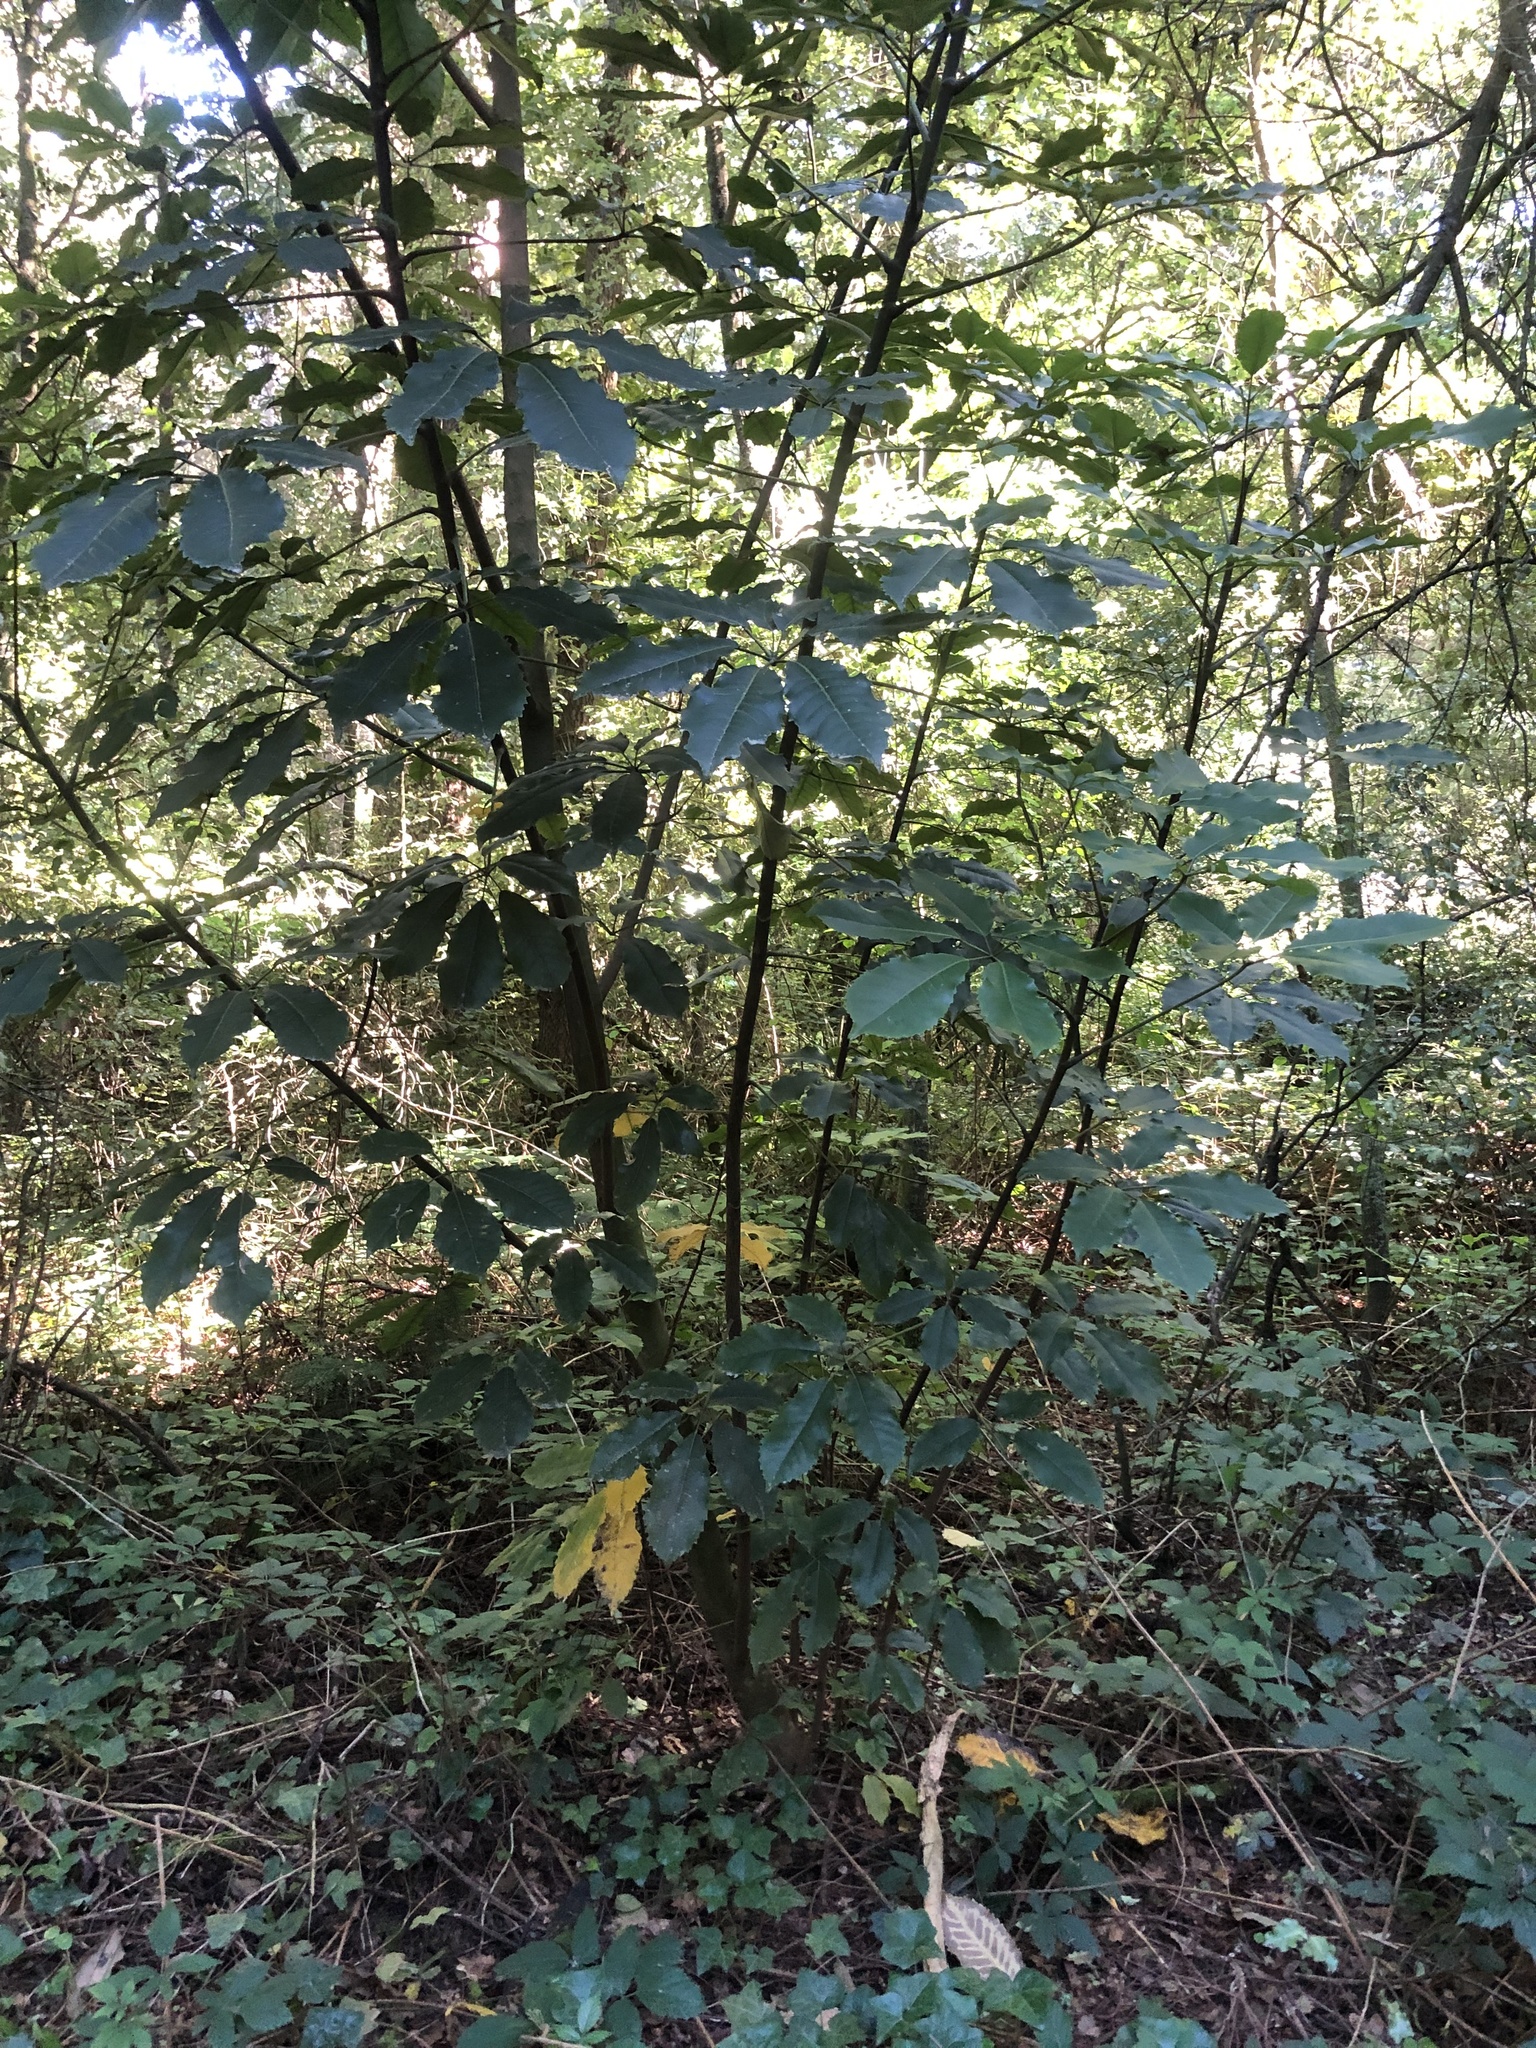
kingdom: Plantae
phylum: Tracheophyta
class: Magnoliopsida
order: Apiales
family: Araliaceae
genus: Neopanax
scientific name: Neopanax arboreus
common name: Five-fingers
